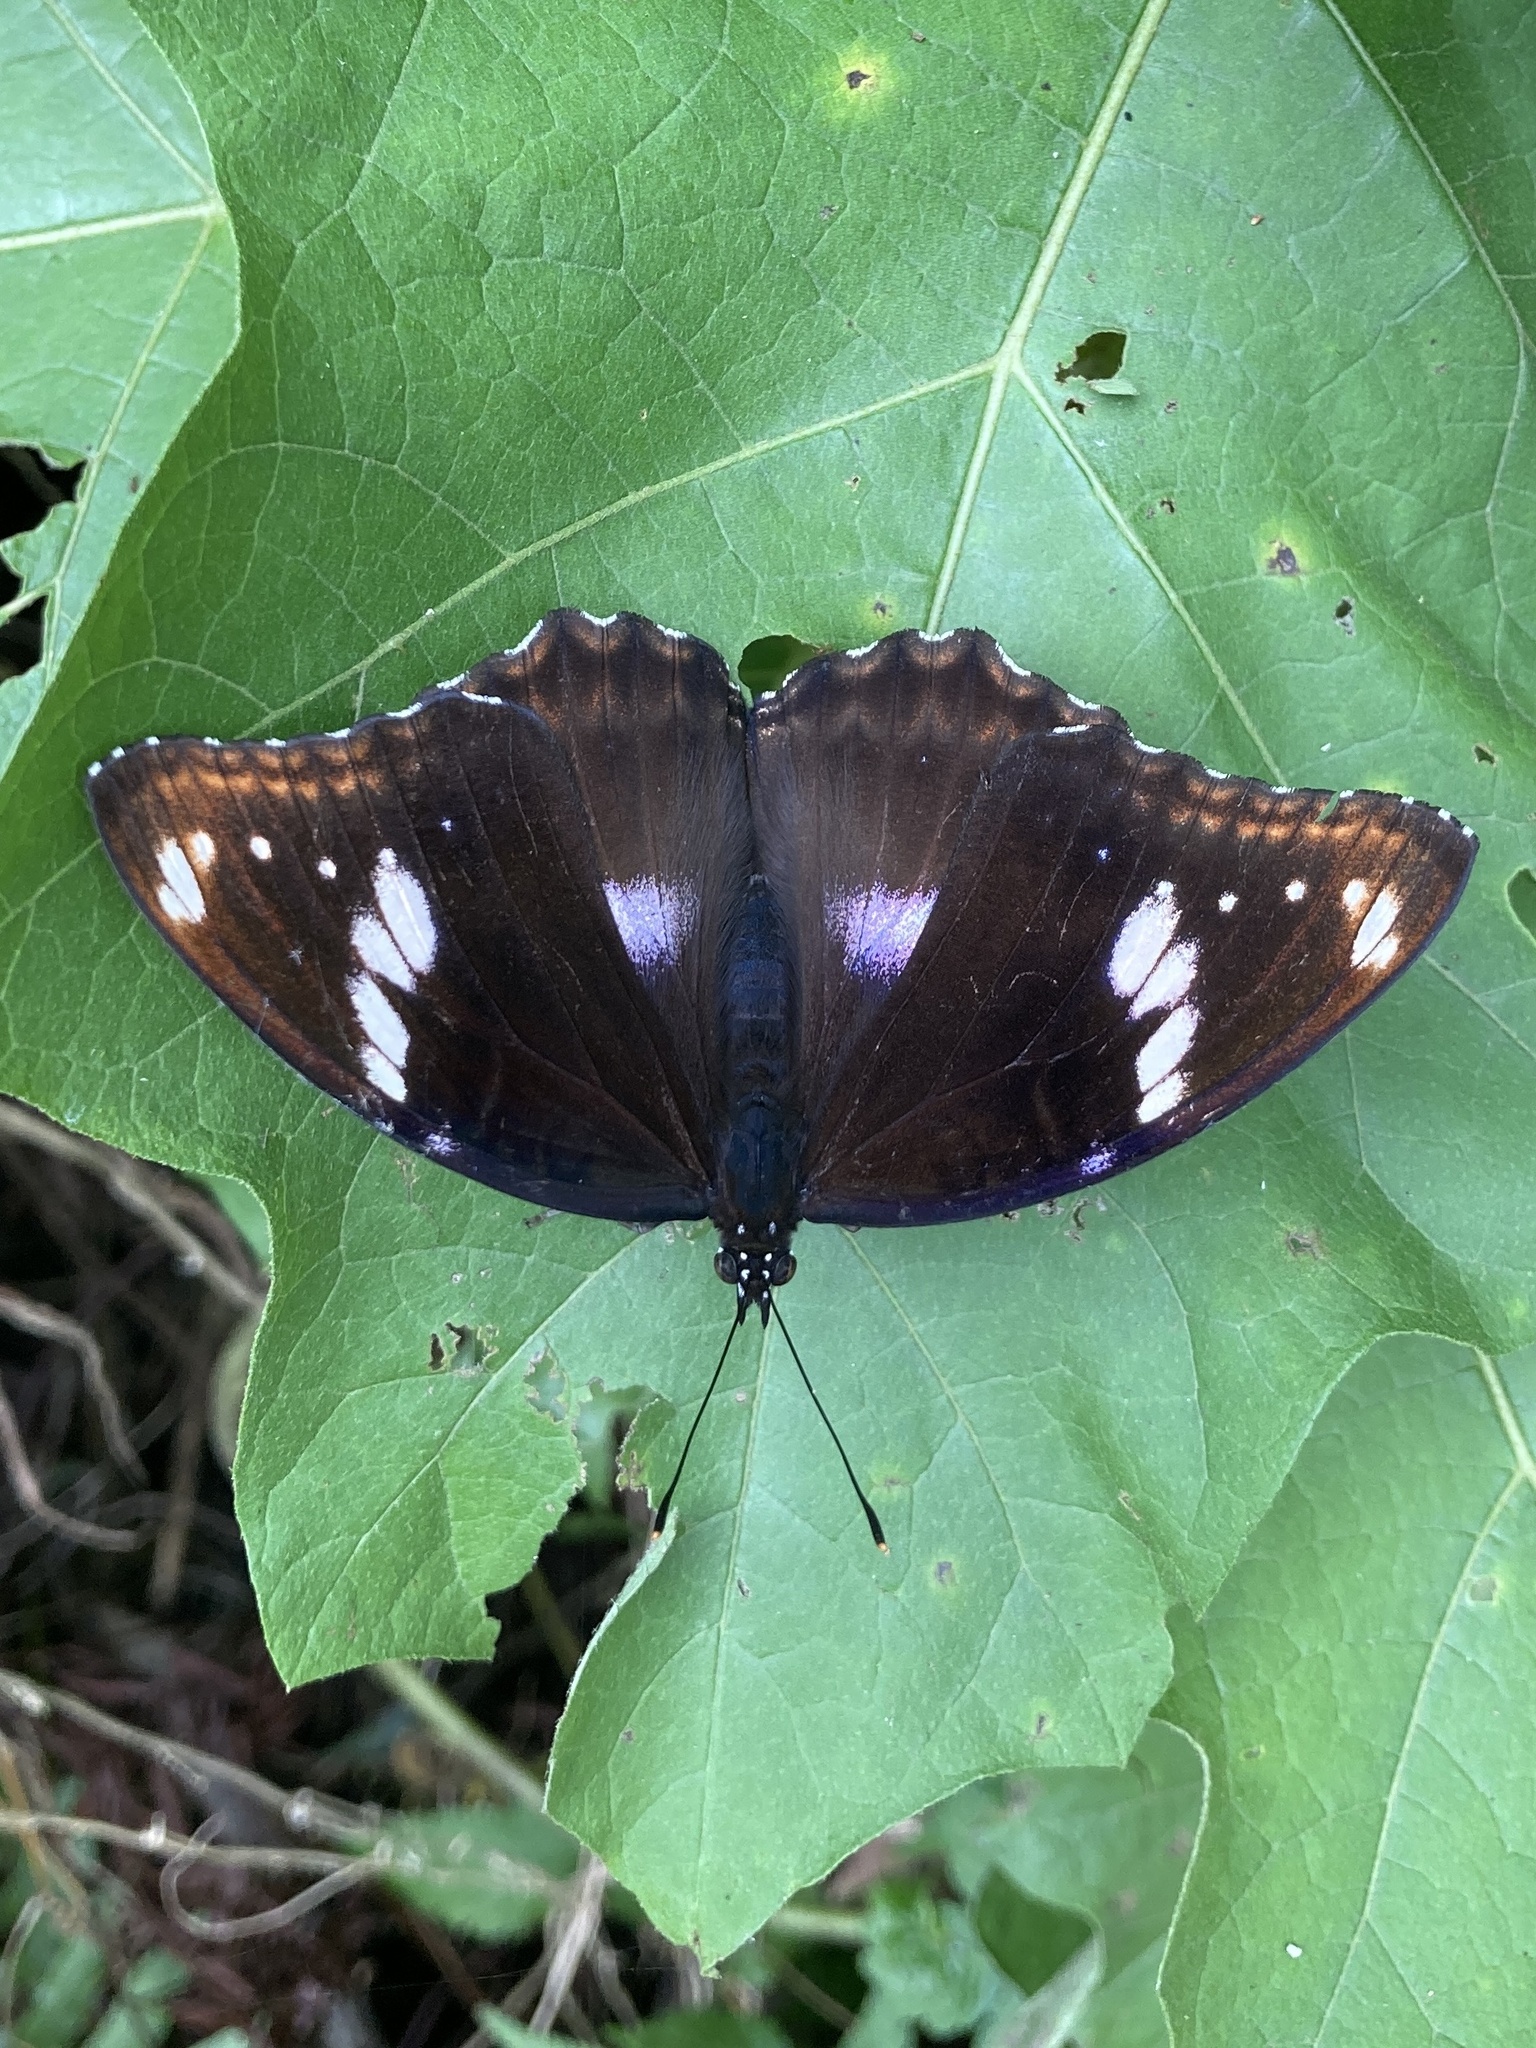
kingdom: Animalia
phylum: Arthropoda
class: Insecta
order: Lepidoptera
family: Nymphalidae
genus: Hypolimnas
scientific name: Hypolimnas bolina
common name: Great eggfly
